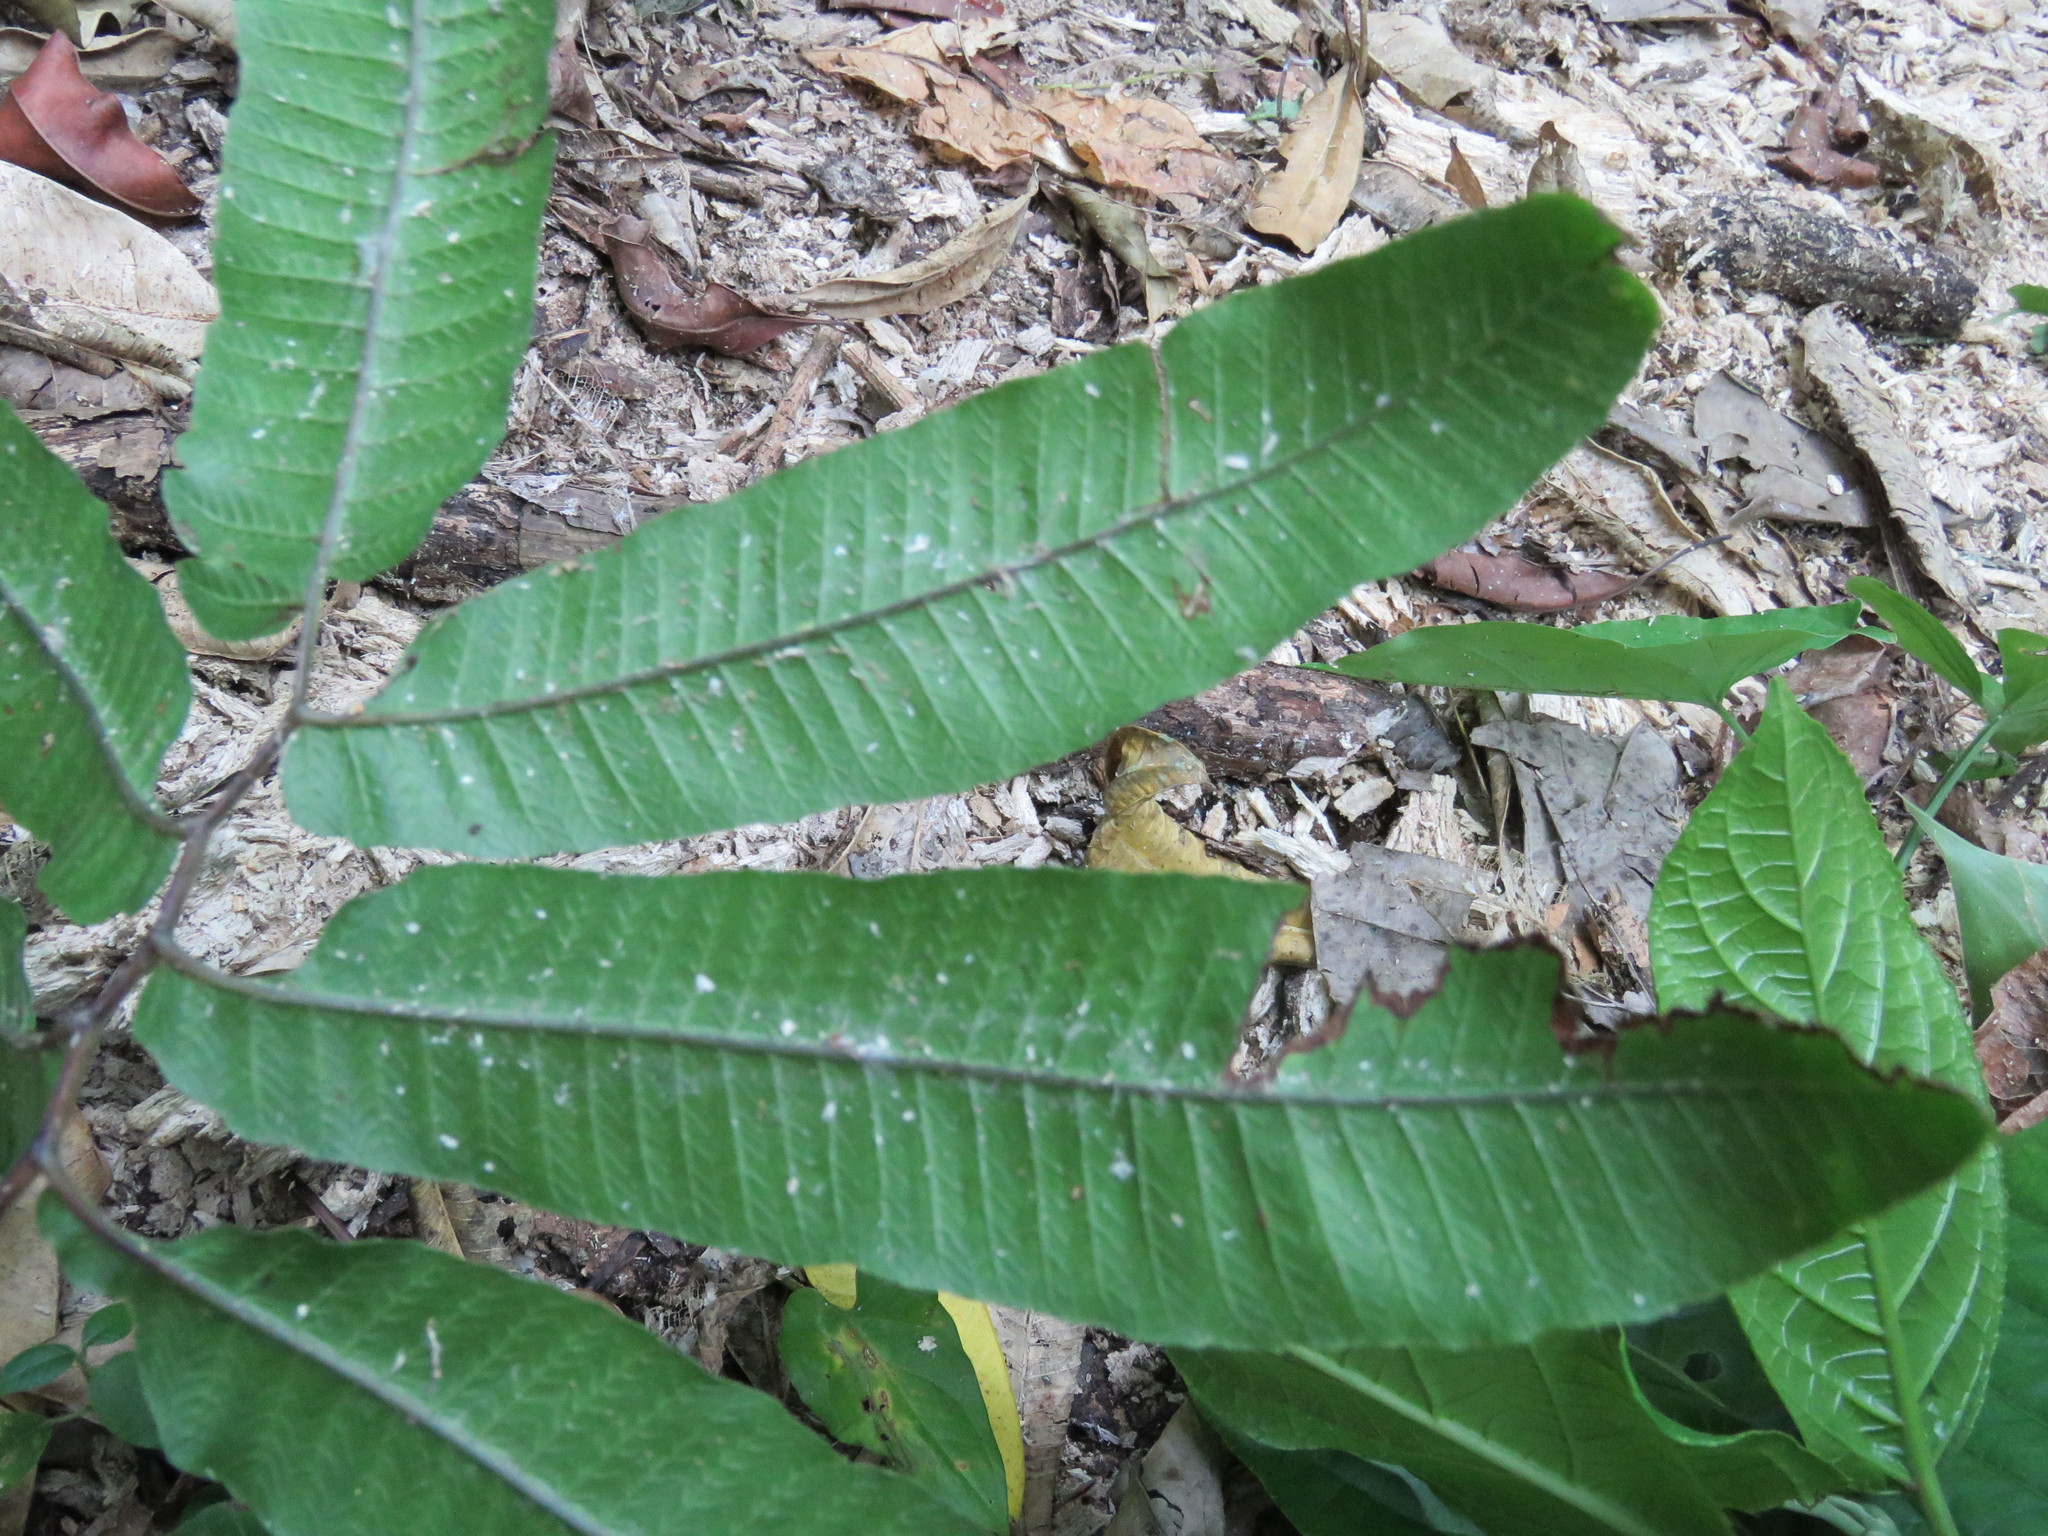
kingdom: Plantae
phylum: Tracheophyta
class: Polypodiopsida
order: Polypodiales
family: Thelypteridaceae
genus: Goniopteris
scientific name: Goniopteris rhachiflexuosa
